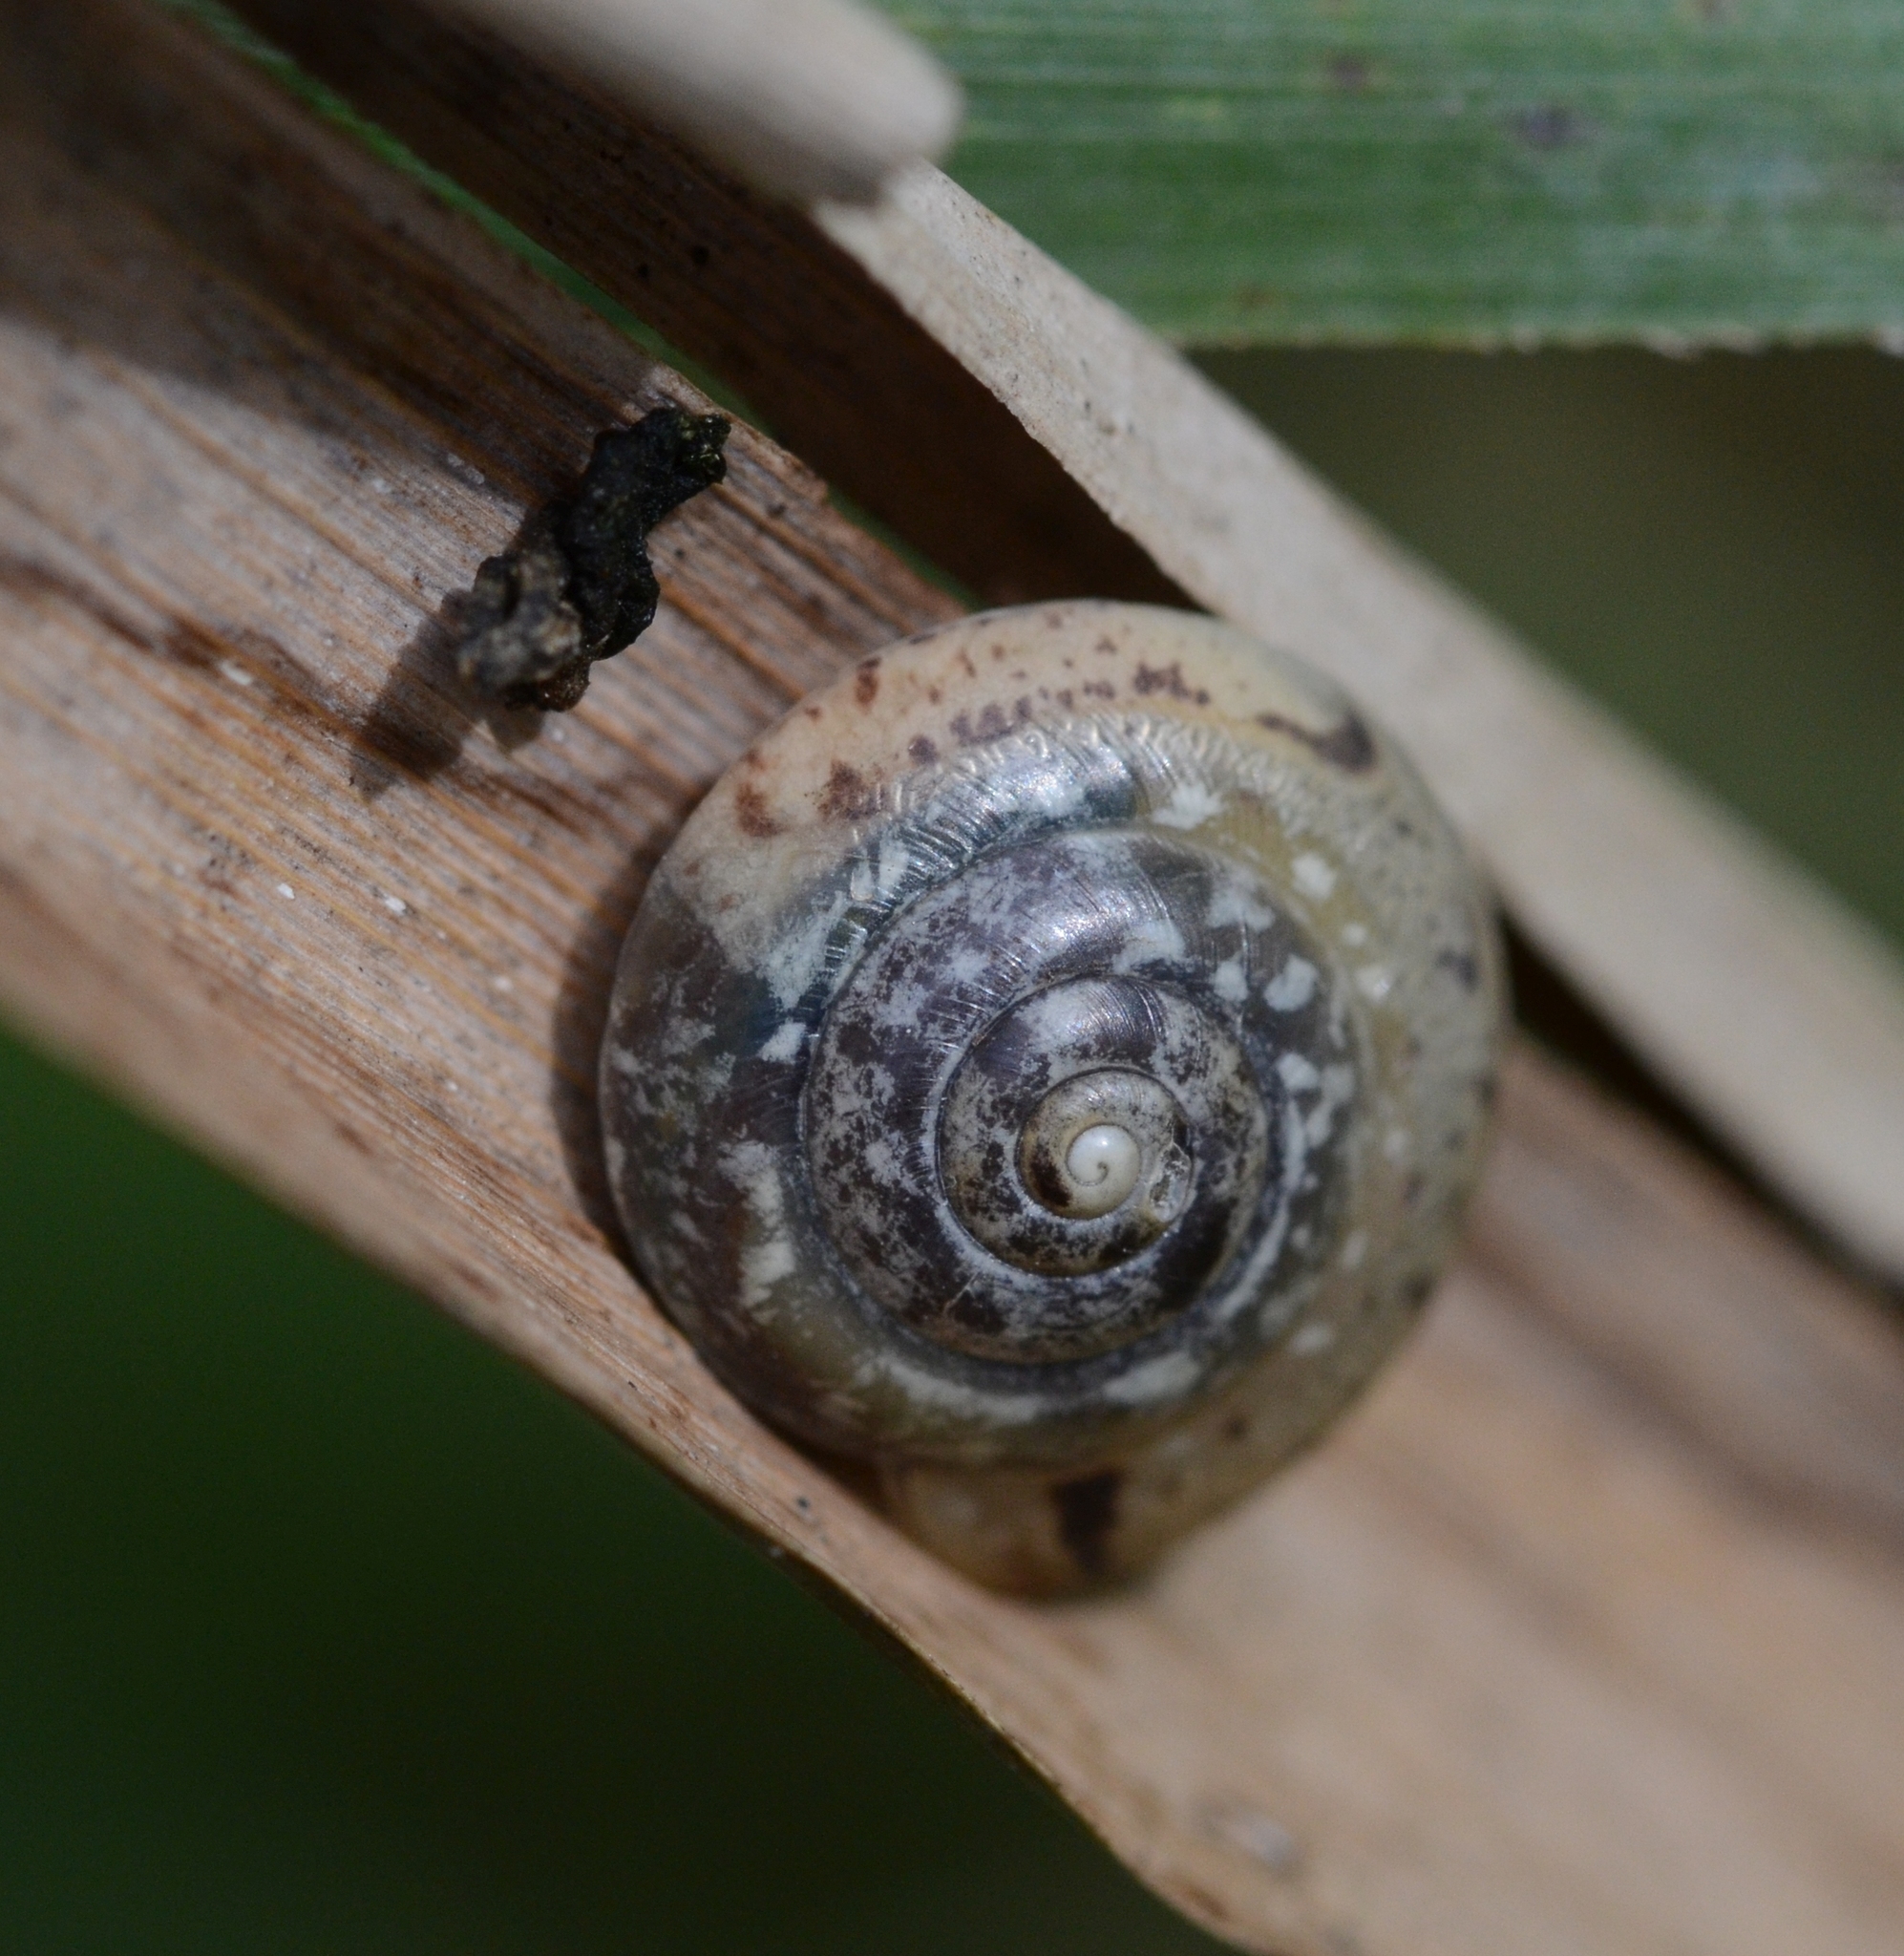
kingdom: Animalia
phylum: Mollusca
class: Gastropoda
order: Stylommatophora
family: Hygromiidae
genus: Hygromia
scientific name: Hygromia cinctella
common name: Girdled snail
